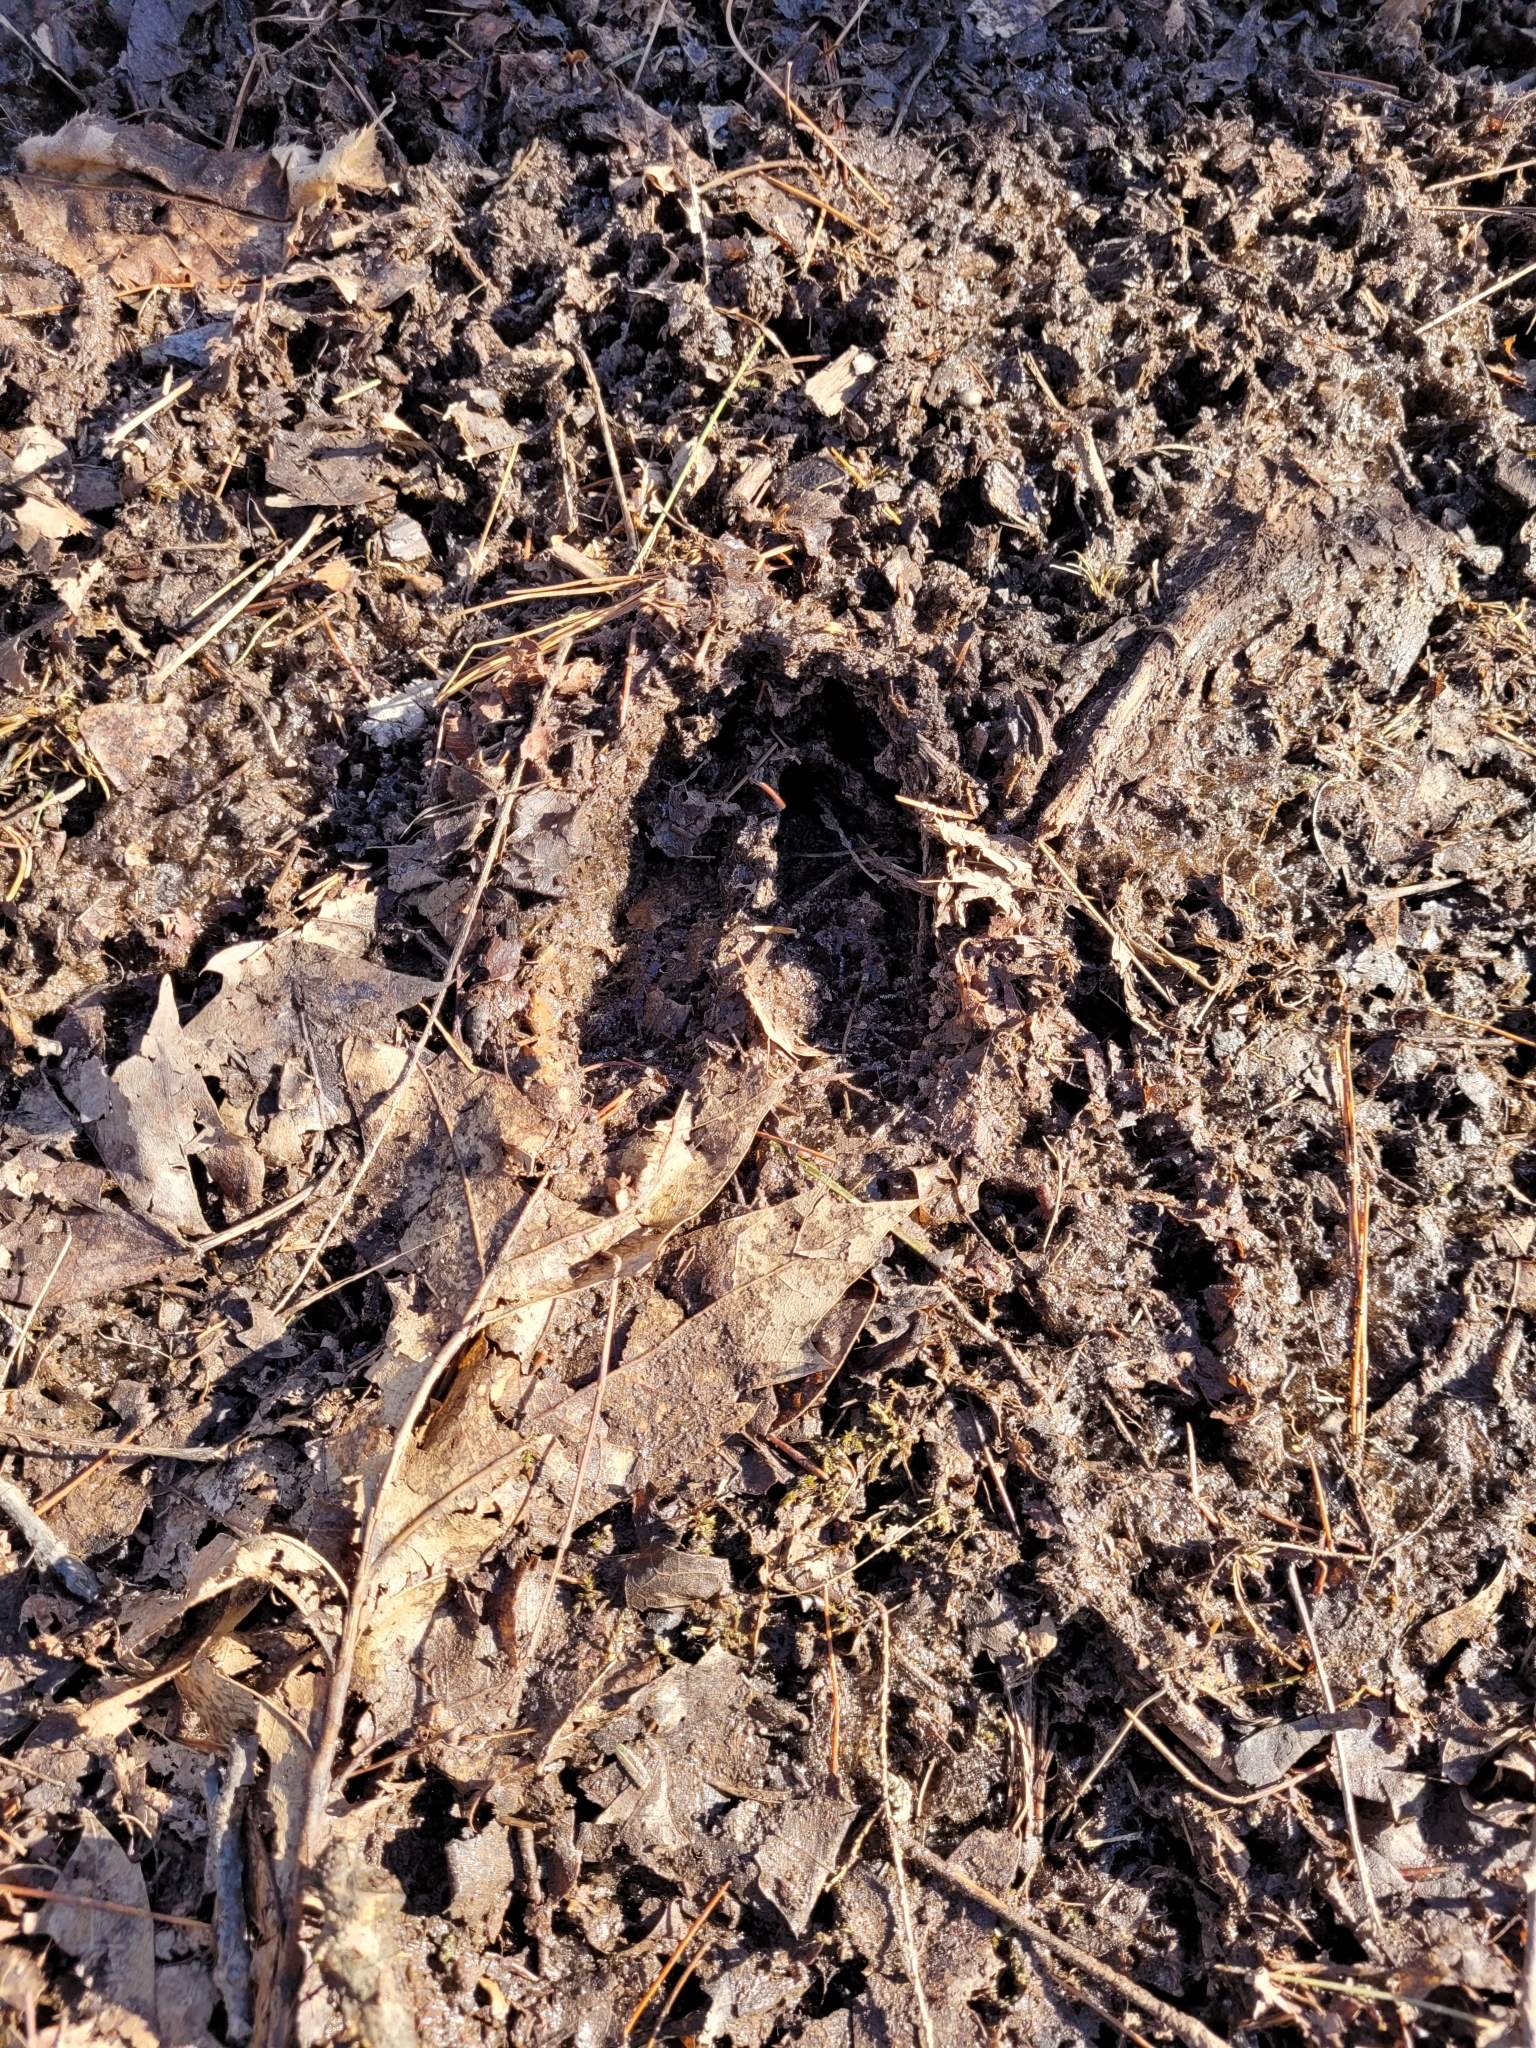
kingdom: Animalia
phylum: Chordata
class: Mammalia
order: Artiodactyla
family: Cervidae
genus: Odocoileus
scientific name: Odocoileus virginianus
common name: White-tailed deer
